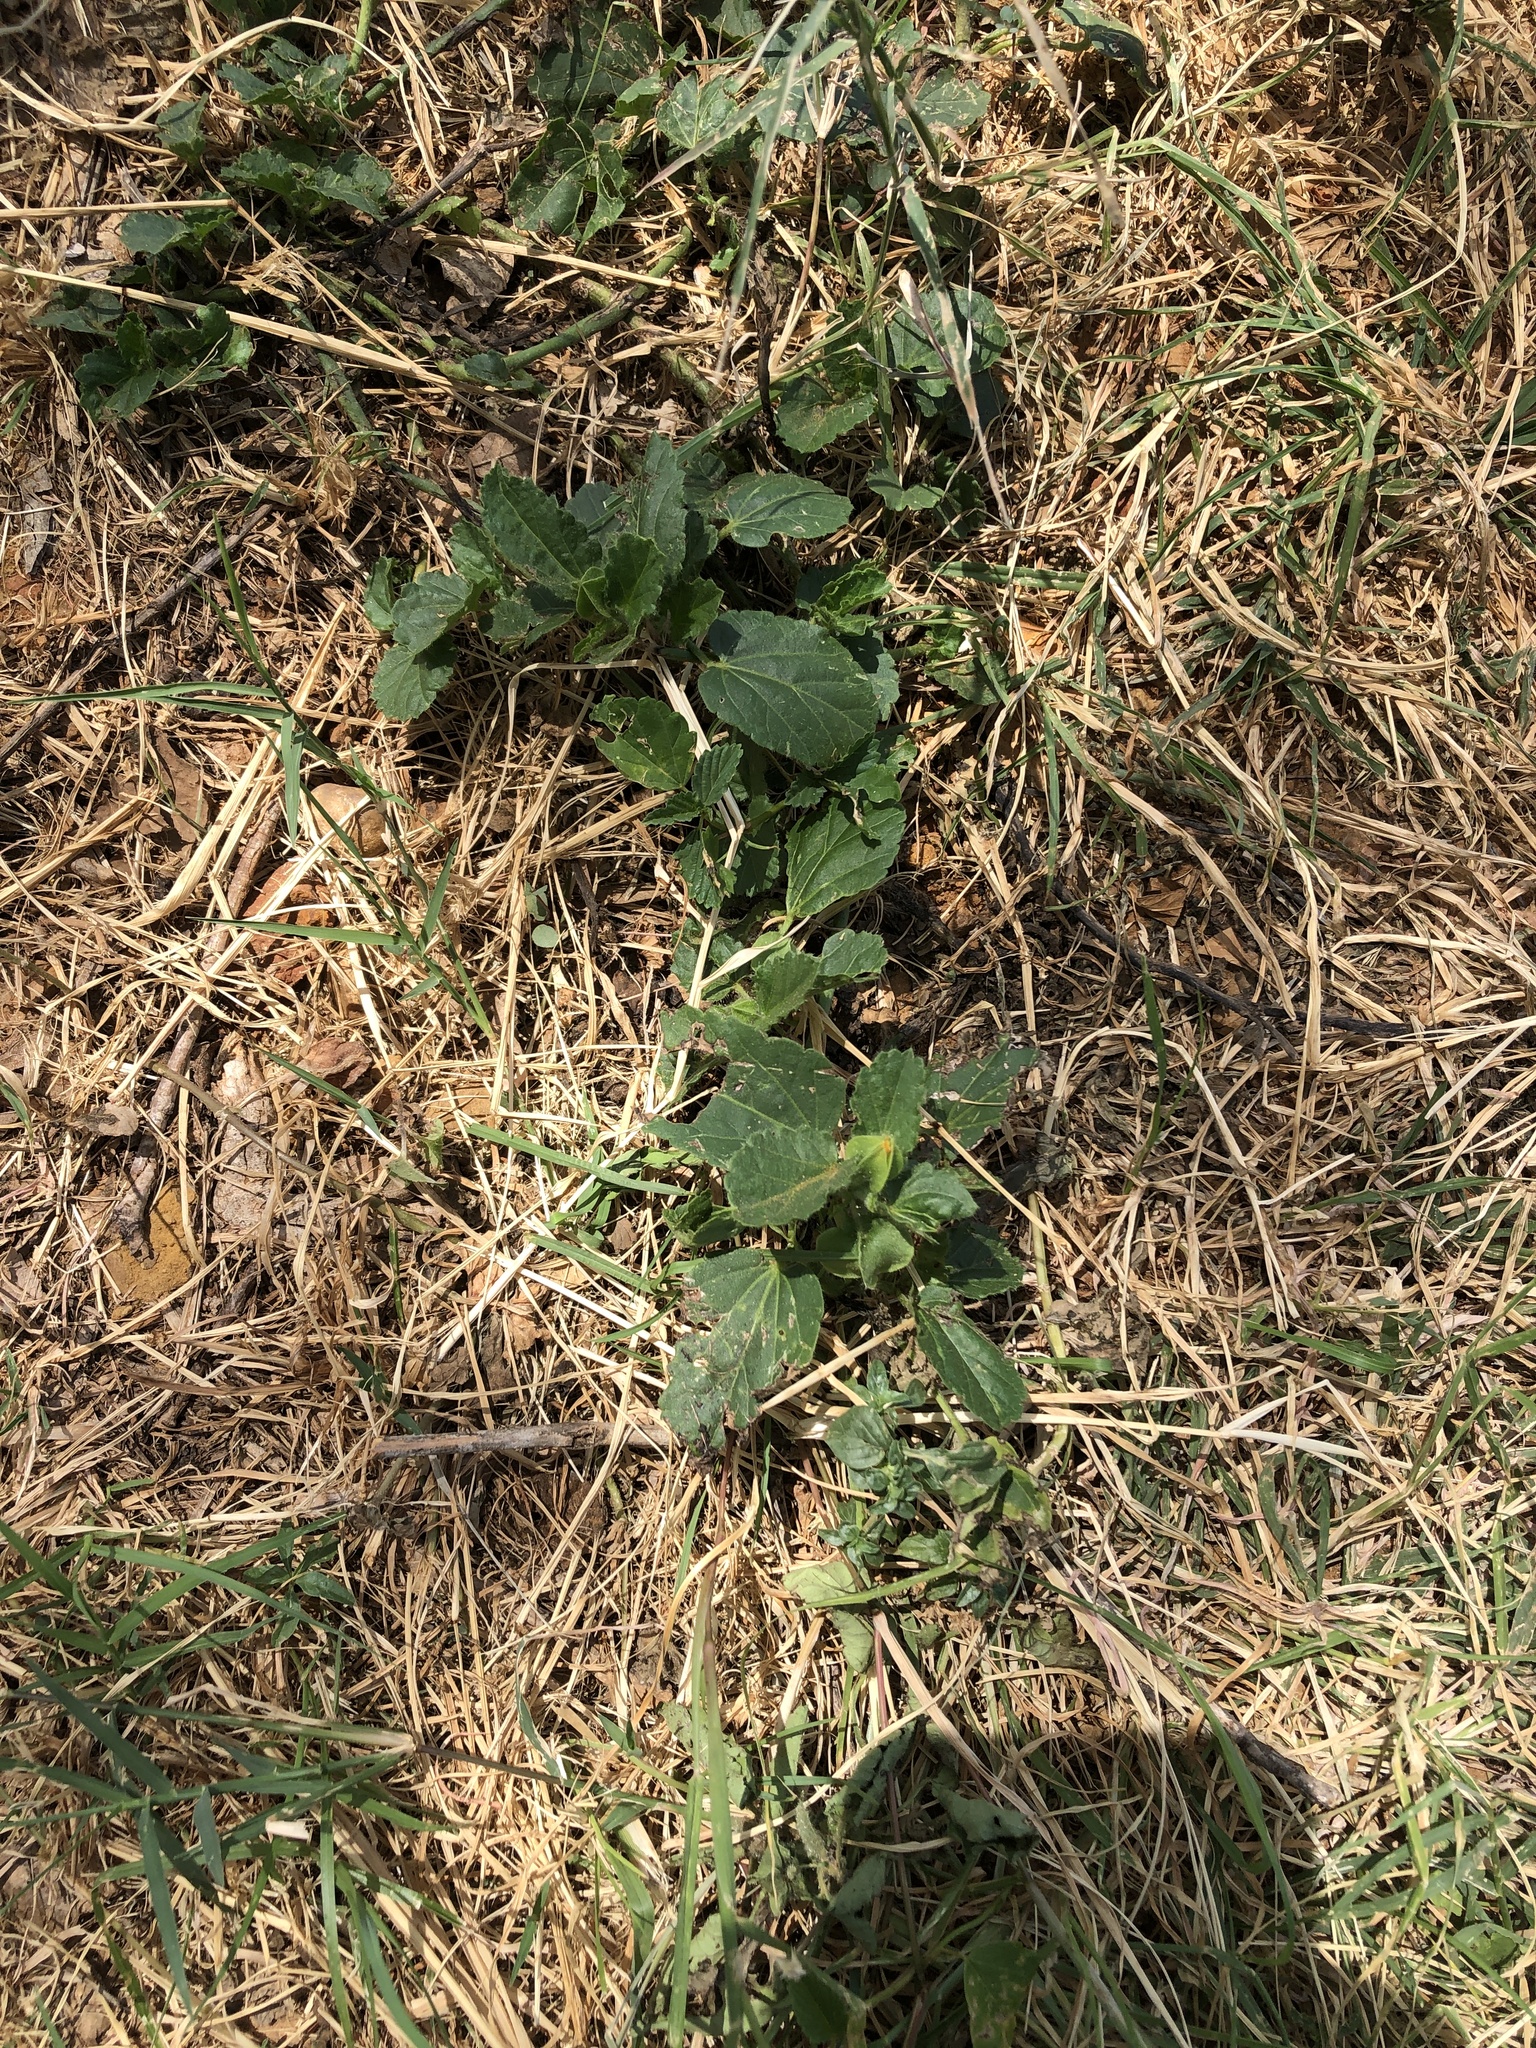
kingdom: Plantae
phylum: Tracheophyta
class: Magnoliopsida
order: Malvales
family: Malvaceae
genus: Rhynchosida
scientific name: Rhynchosida physocalyx
